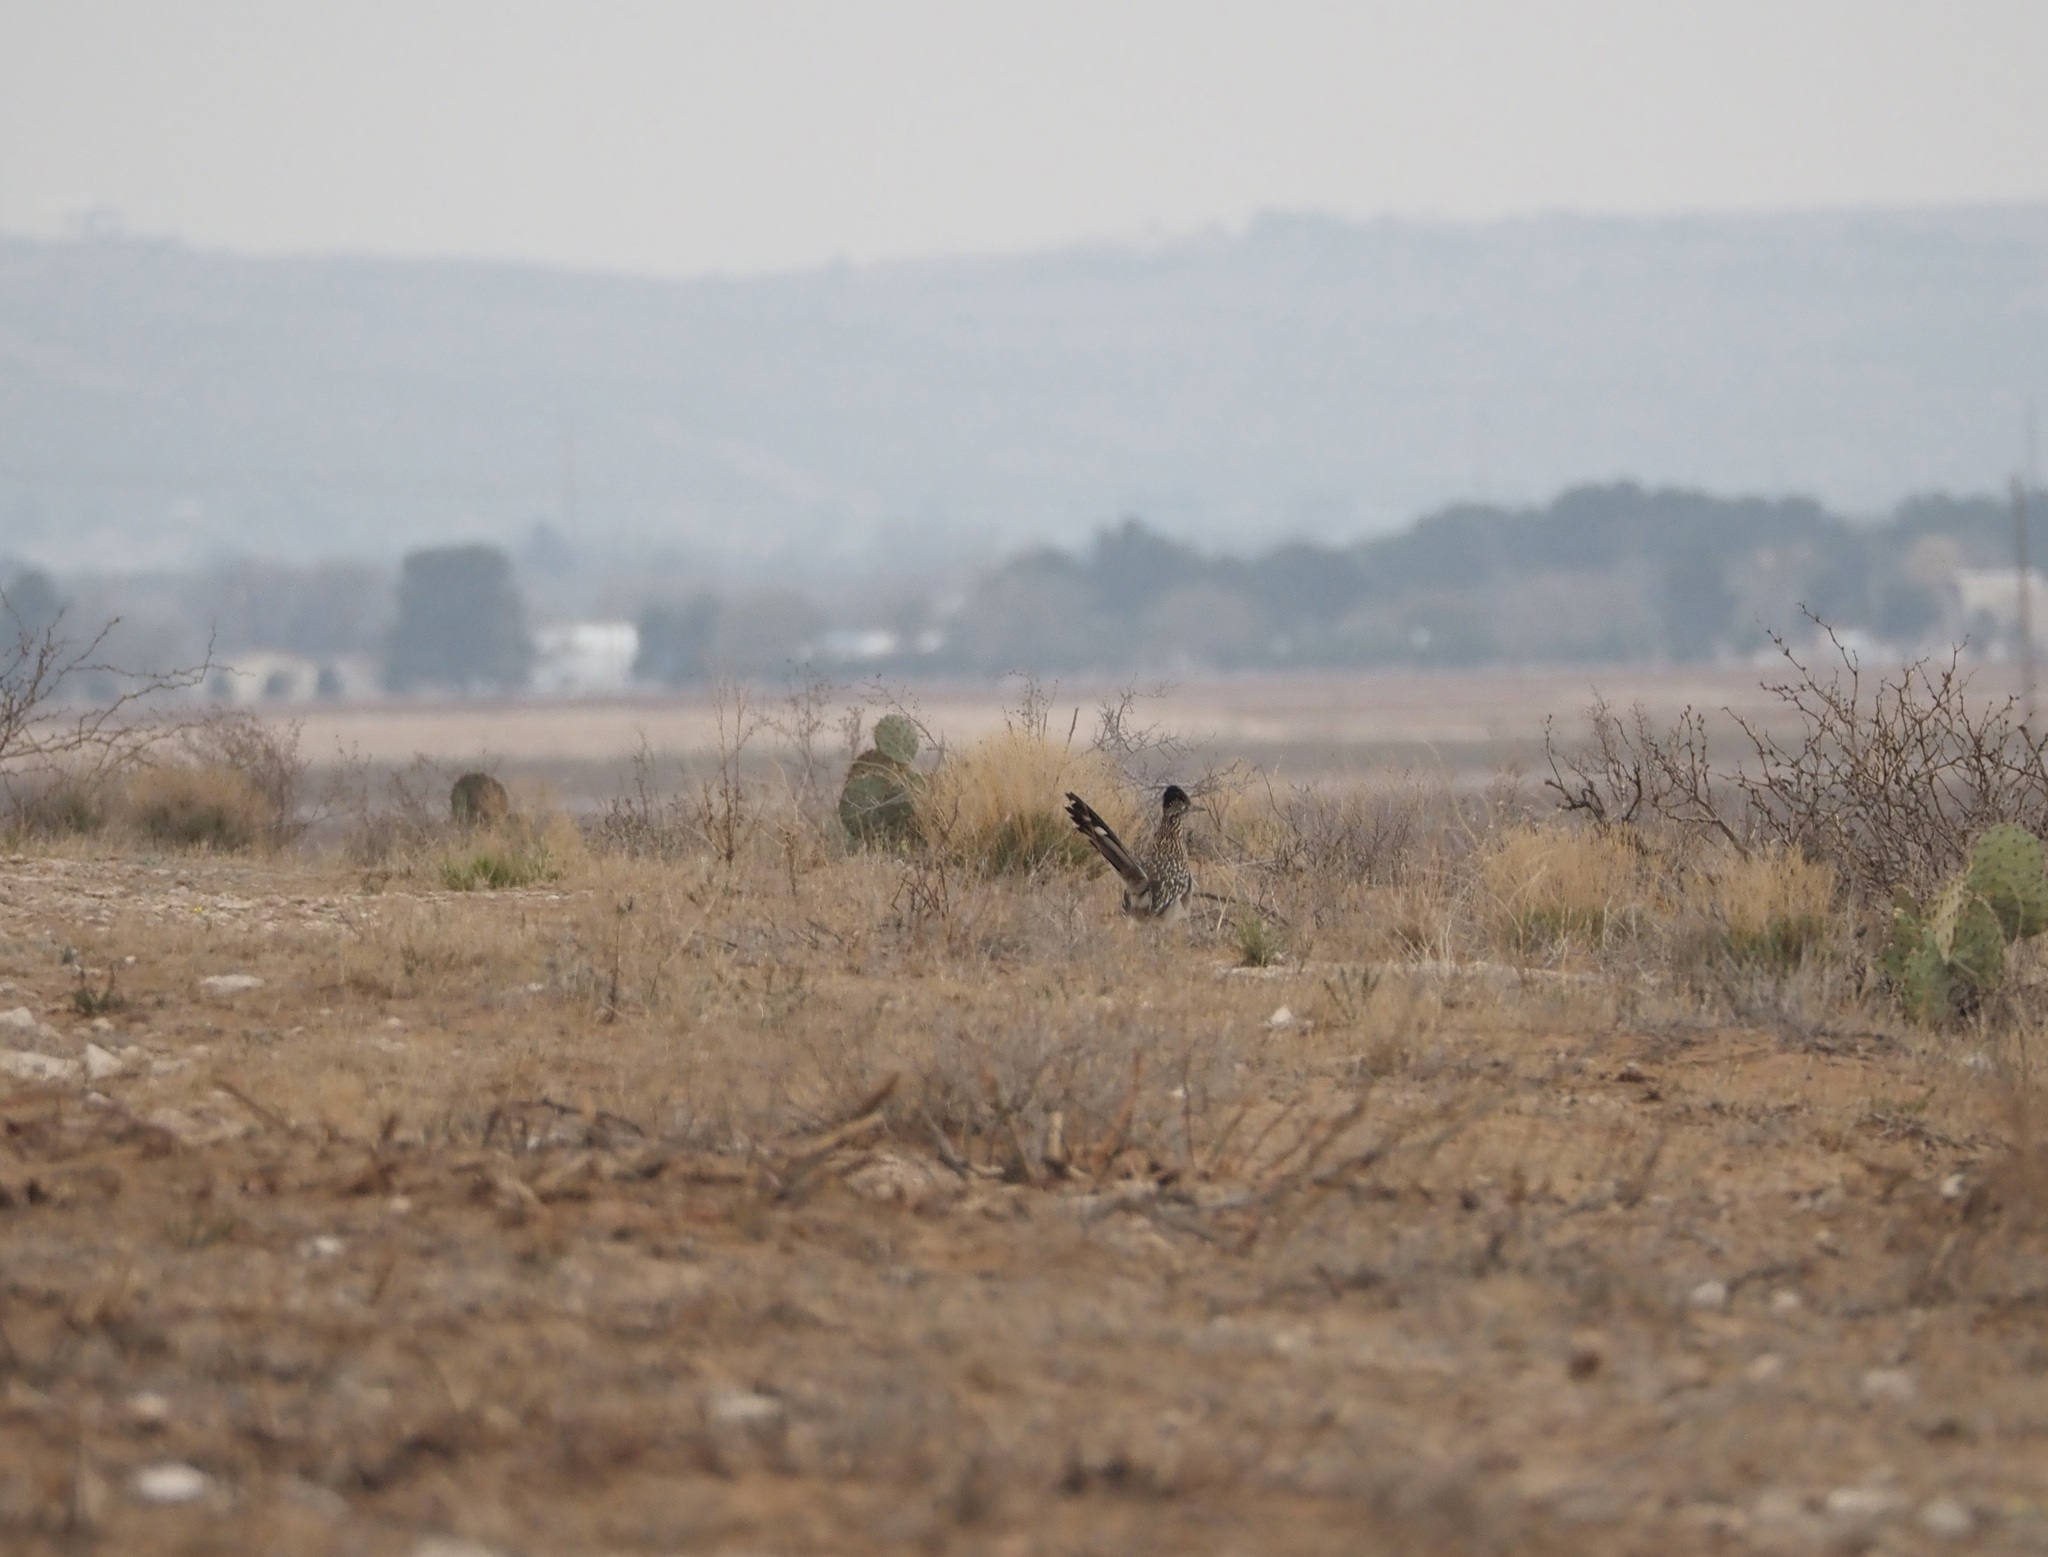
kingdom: Animalia
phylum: Chordata
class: Aves
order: Cuculiformes
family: Cuculidae
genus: Geococcyx
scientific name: Geococcyx californianus
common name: Greater roadrunner
